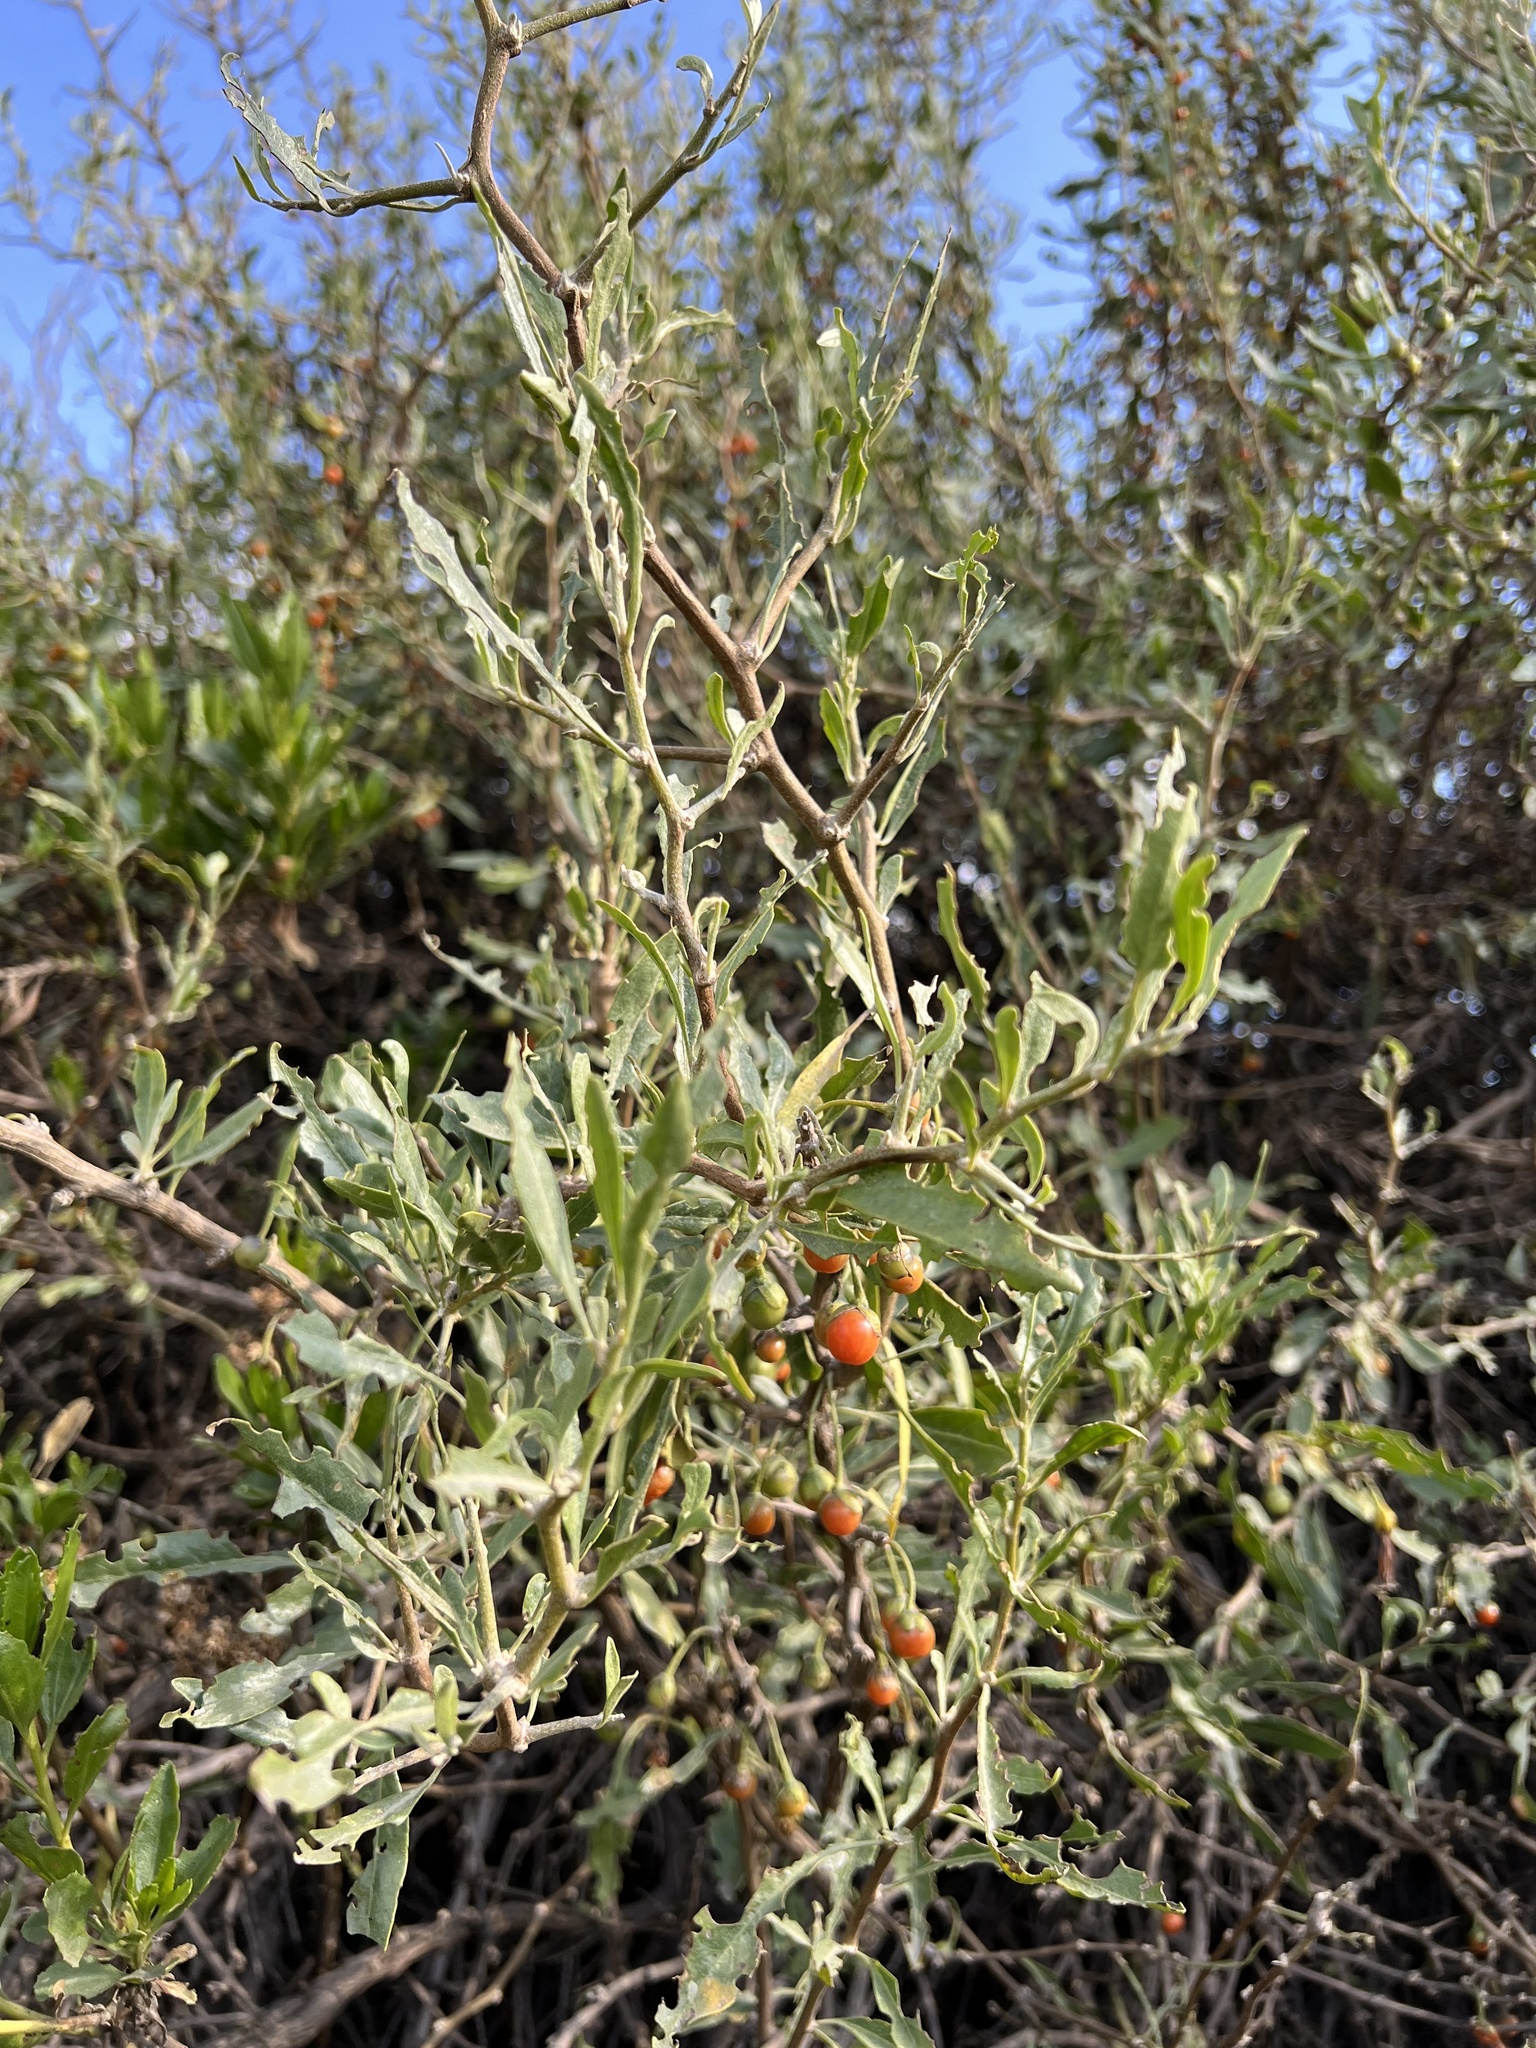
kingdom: Plantae
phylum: Tracheophyta
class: Magnoliopsida
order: Solanales
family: Solanaceae
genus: Dunalia
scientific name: Dunalia spinosa
